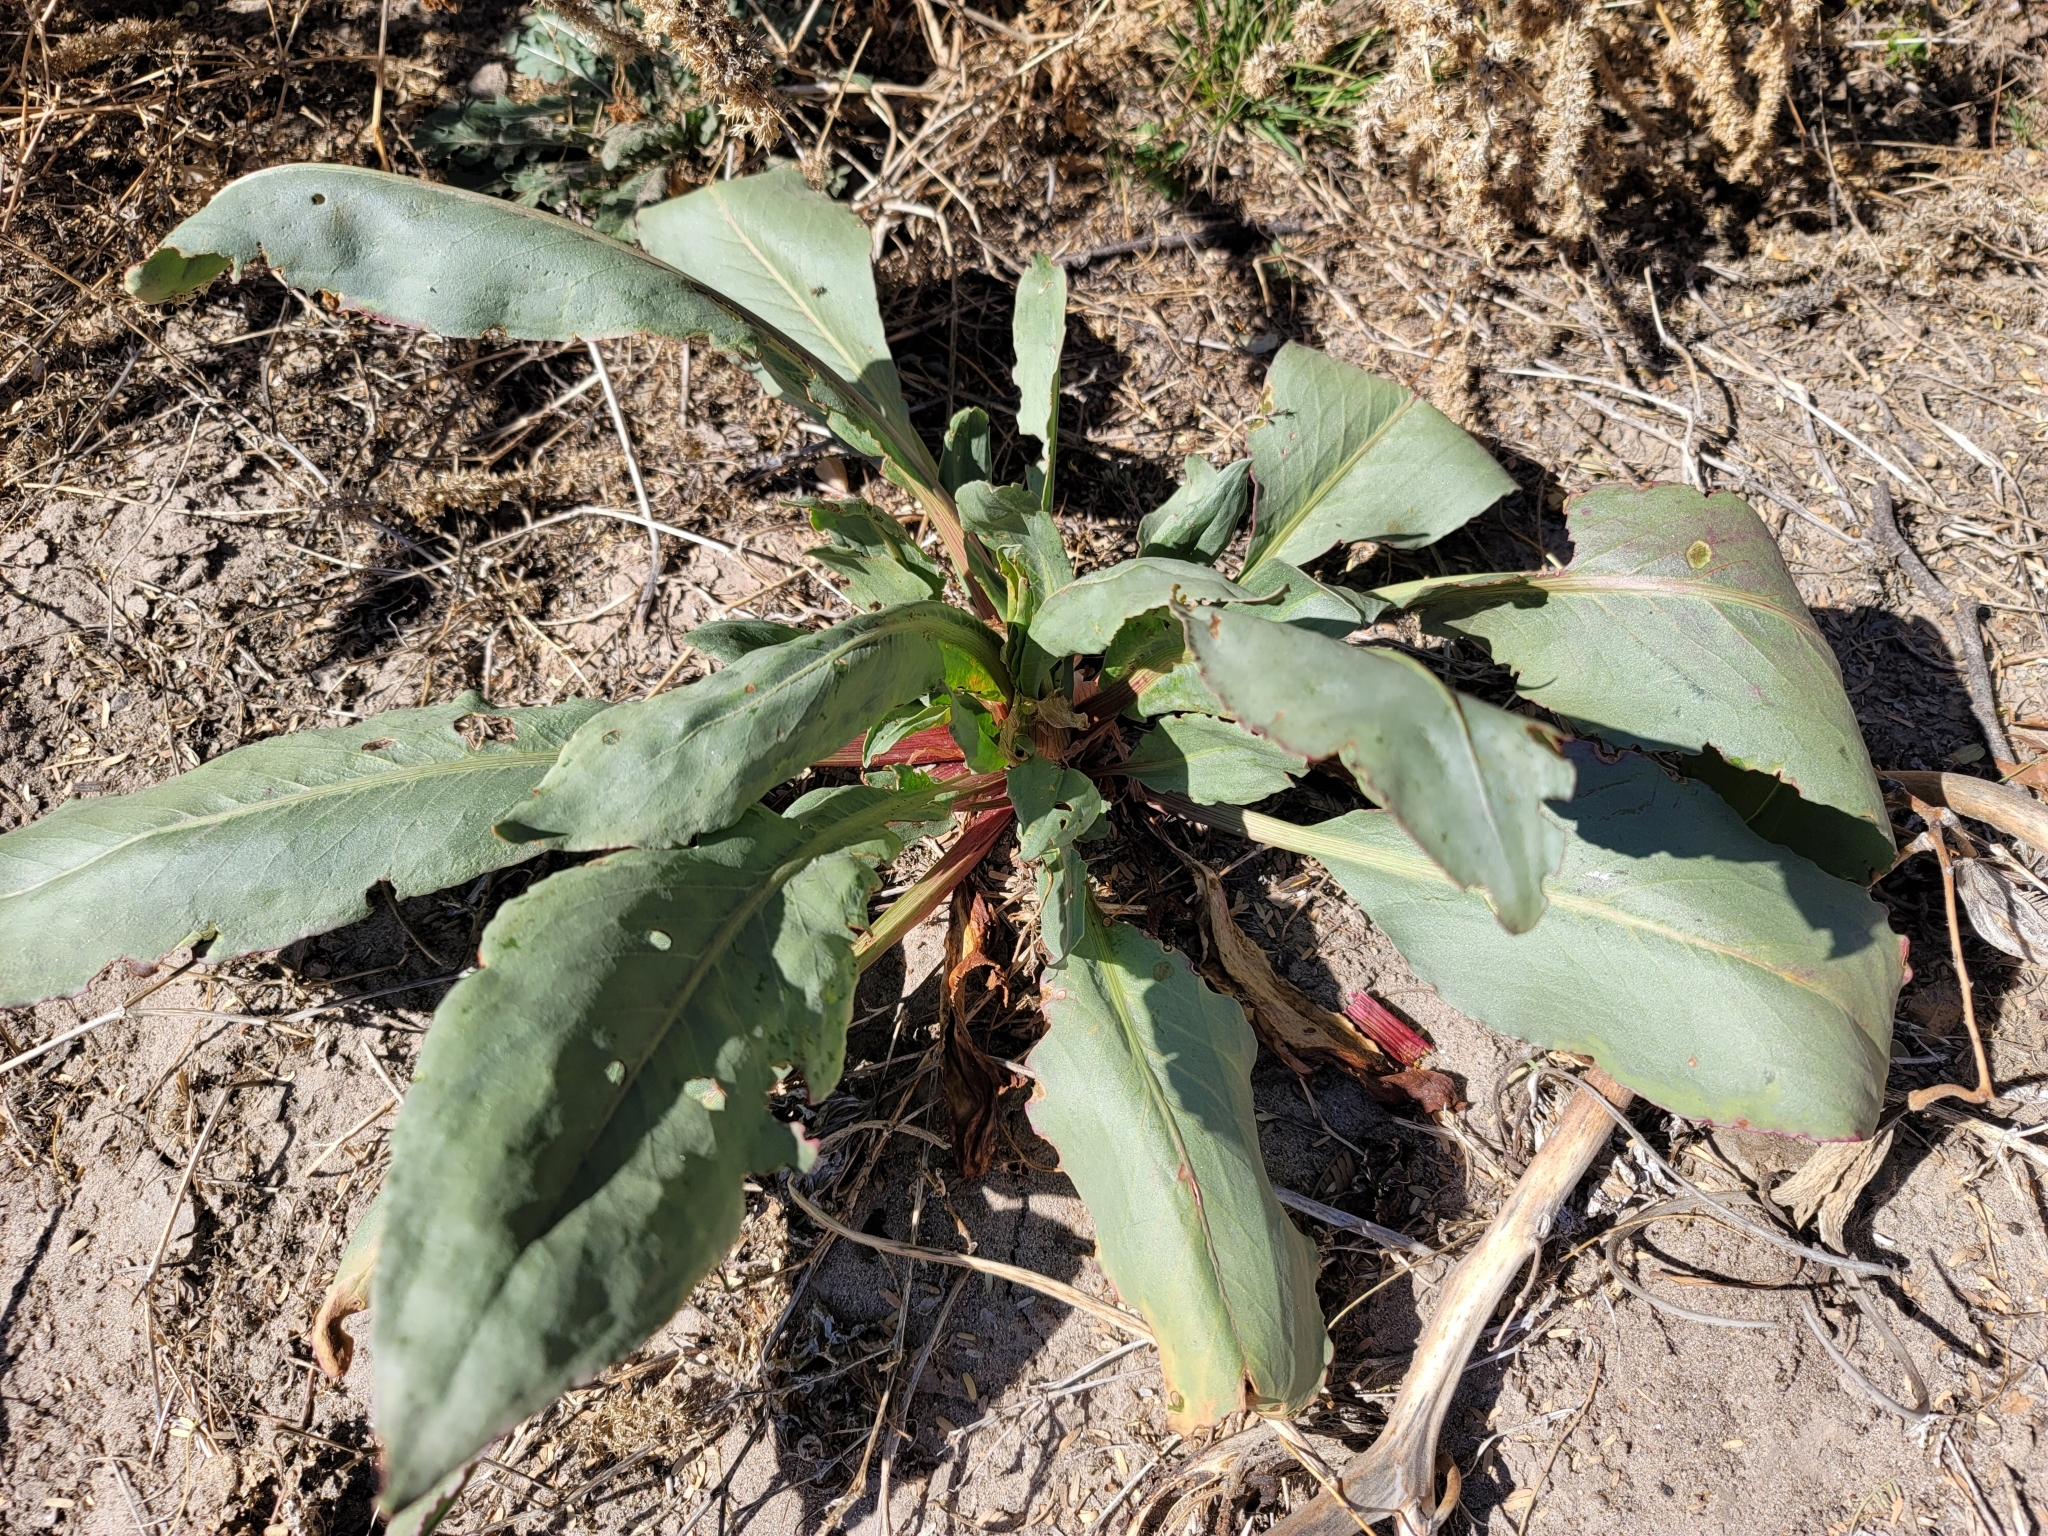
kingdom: Plantae
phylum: Tracheophyta
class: Magnoliopsida
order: Caryophyllales
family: Polygonaceae
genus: Rumex
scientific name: Rumex hymenosepalus
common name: Ganagra
